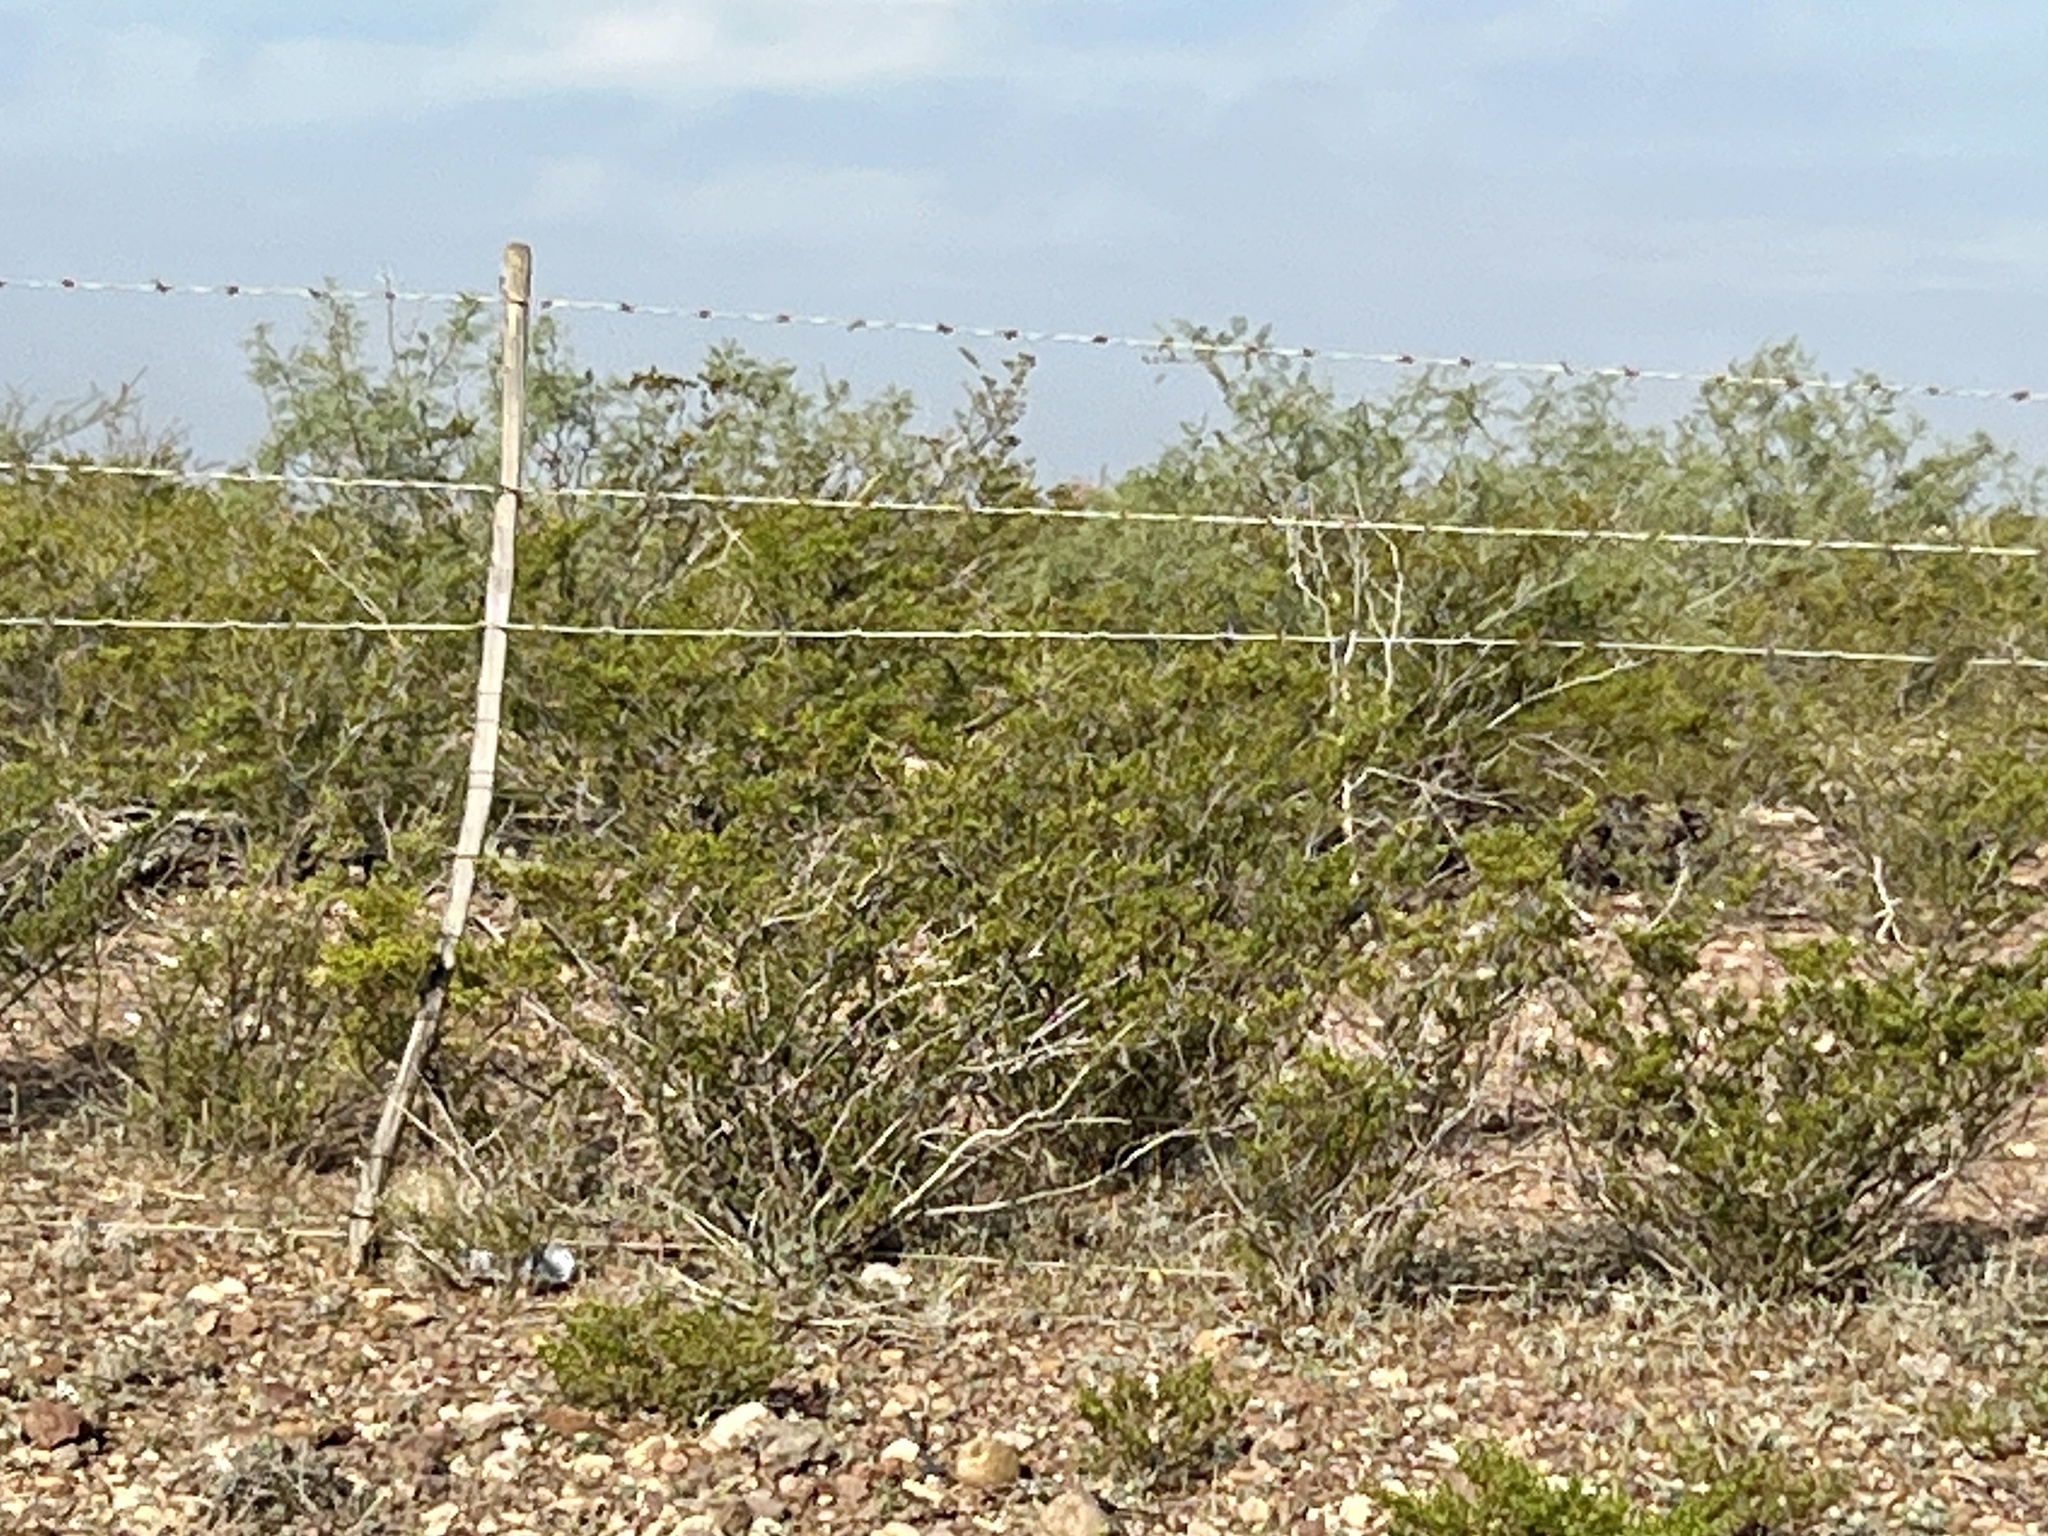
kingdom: Plantae
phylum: Tracheophyta
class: Magnoliopsida
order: Zygophyllales
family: Zygophyllaceae
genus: Larrea
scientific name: Larrea tridentata
